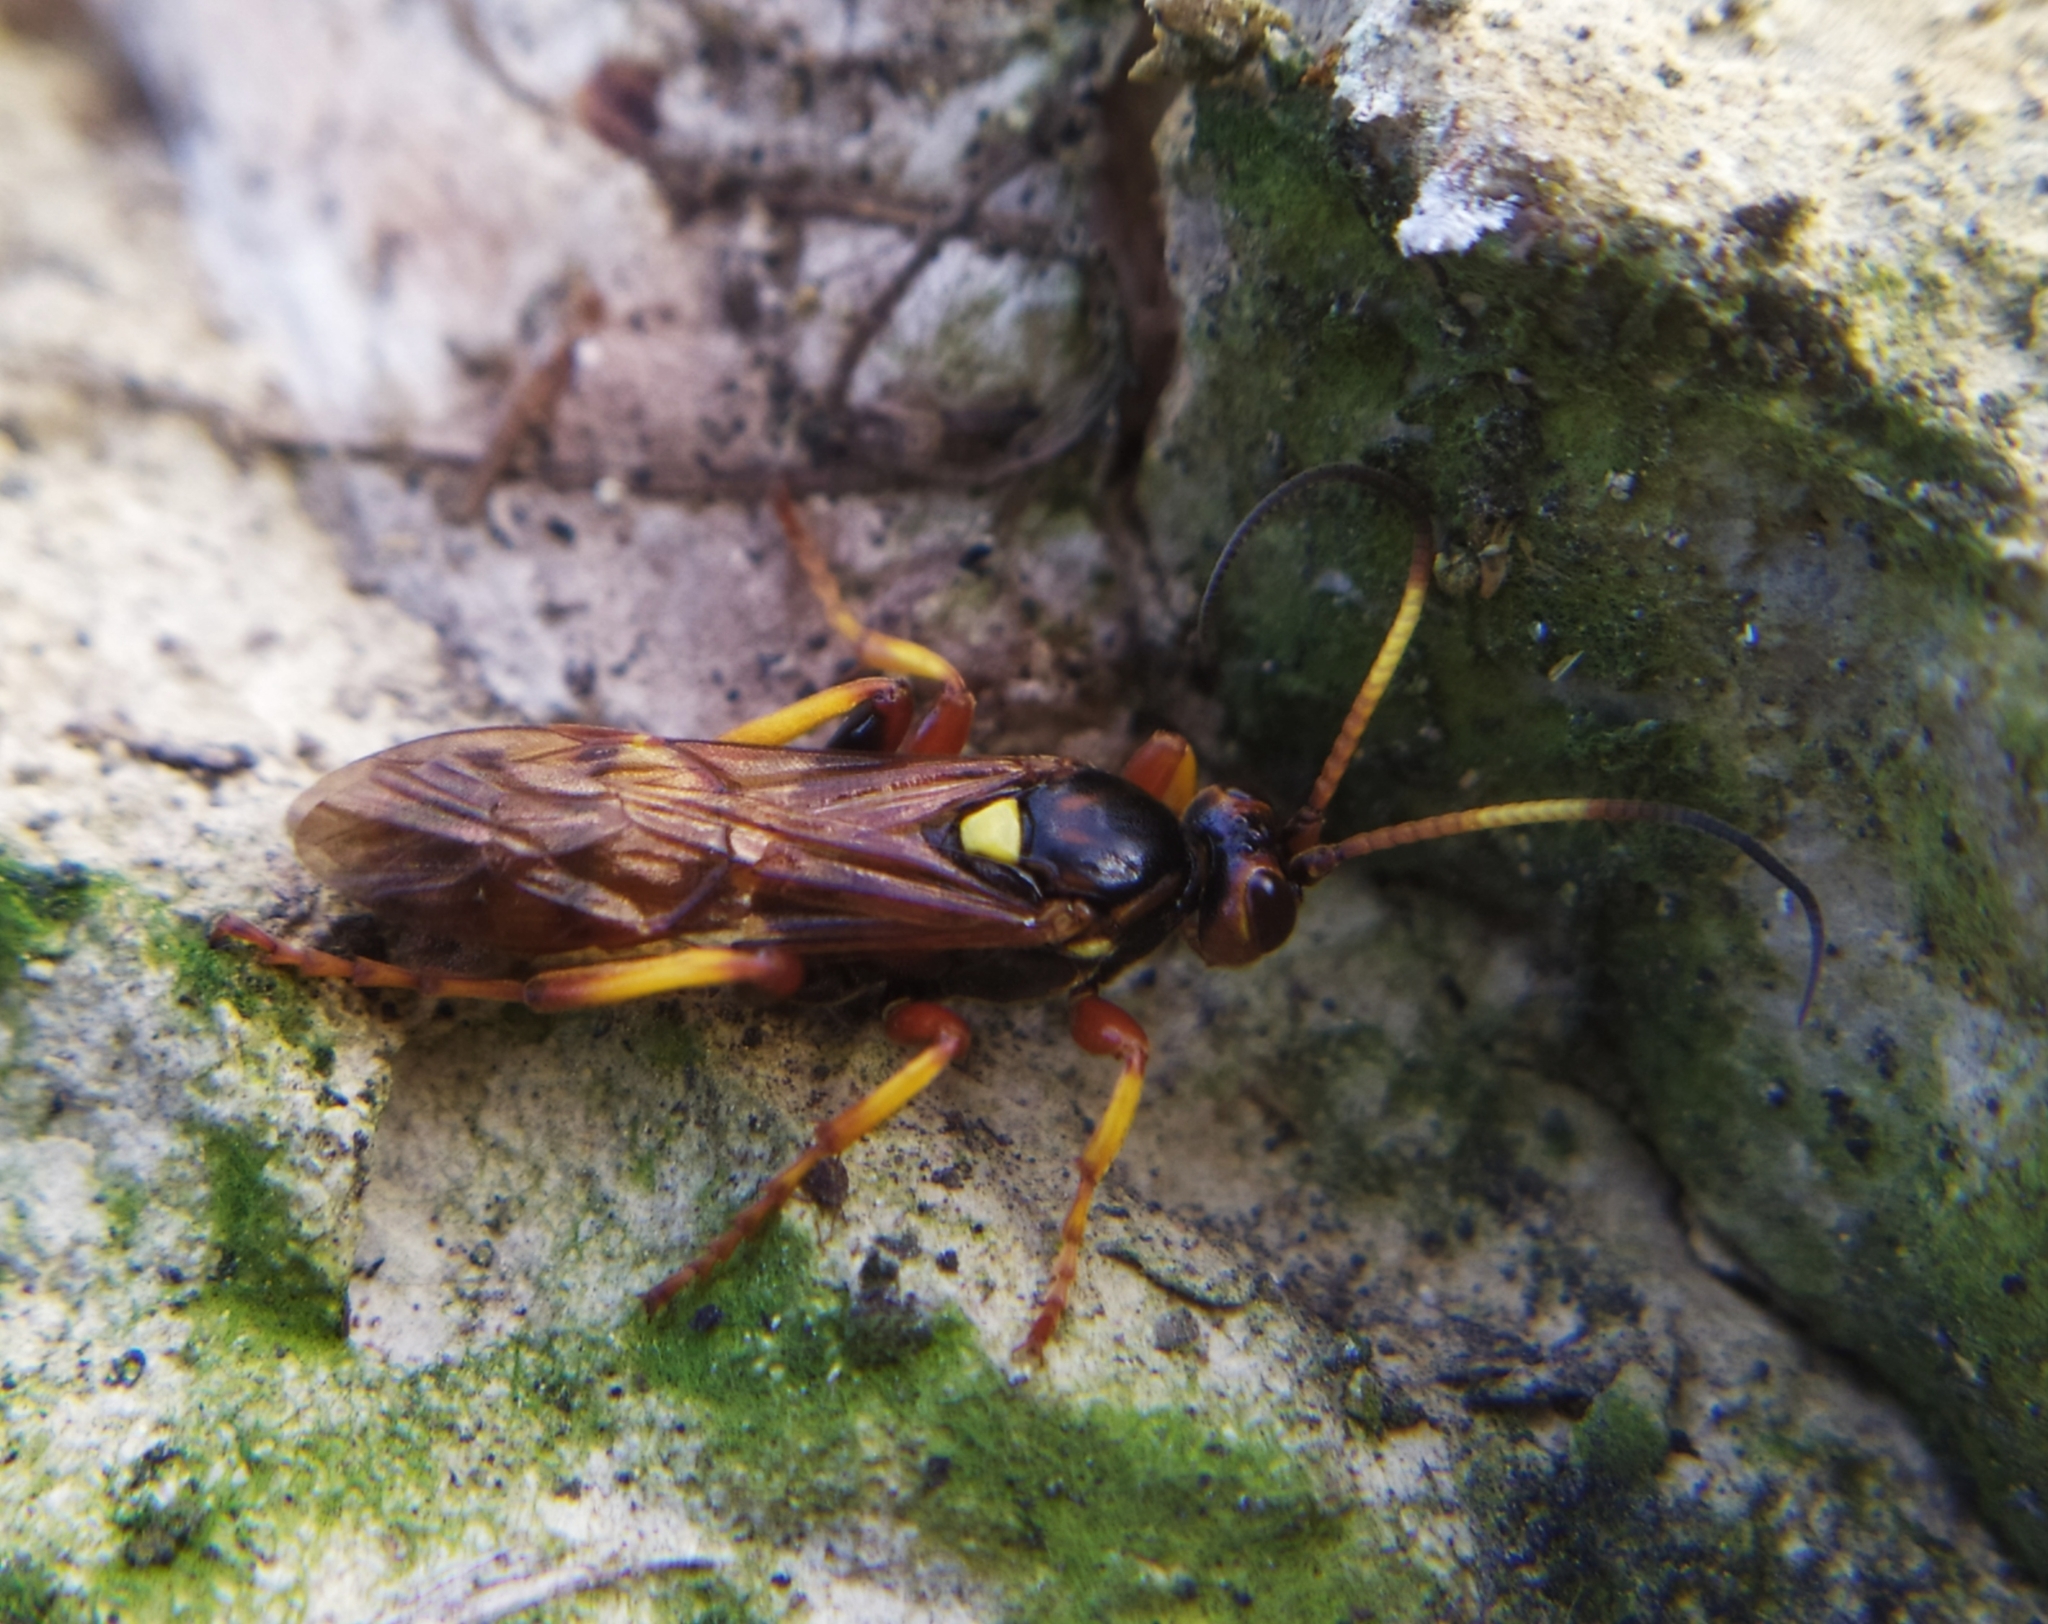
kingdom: Animalia
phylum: Arthropoda
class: Insecta
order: Hymenoptera
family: Ichneumonidae
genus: Eutanyacra
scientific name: Eutanyacra crispatoria
